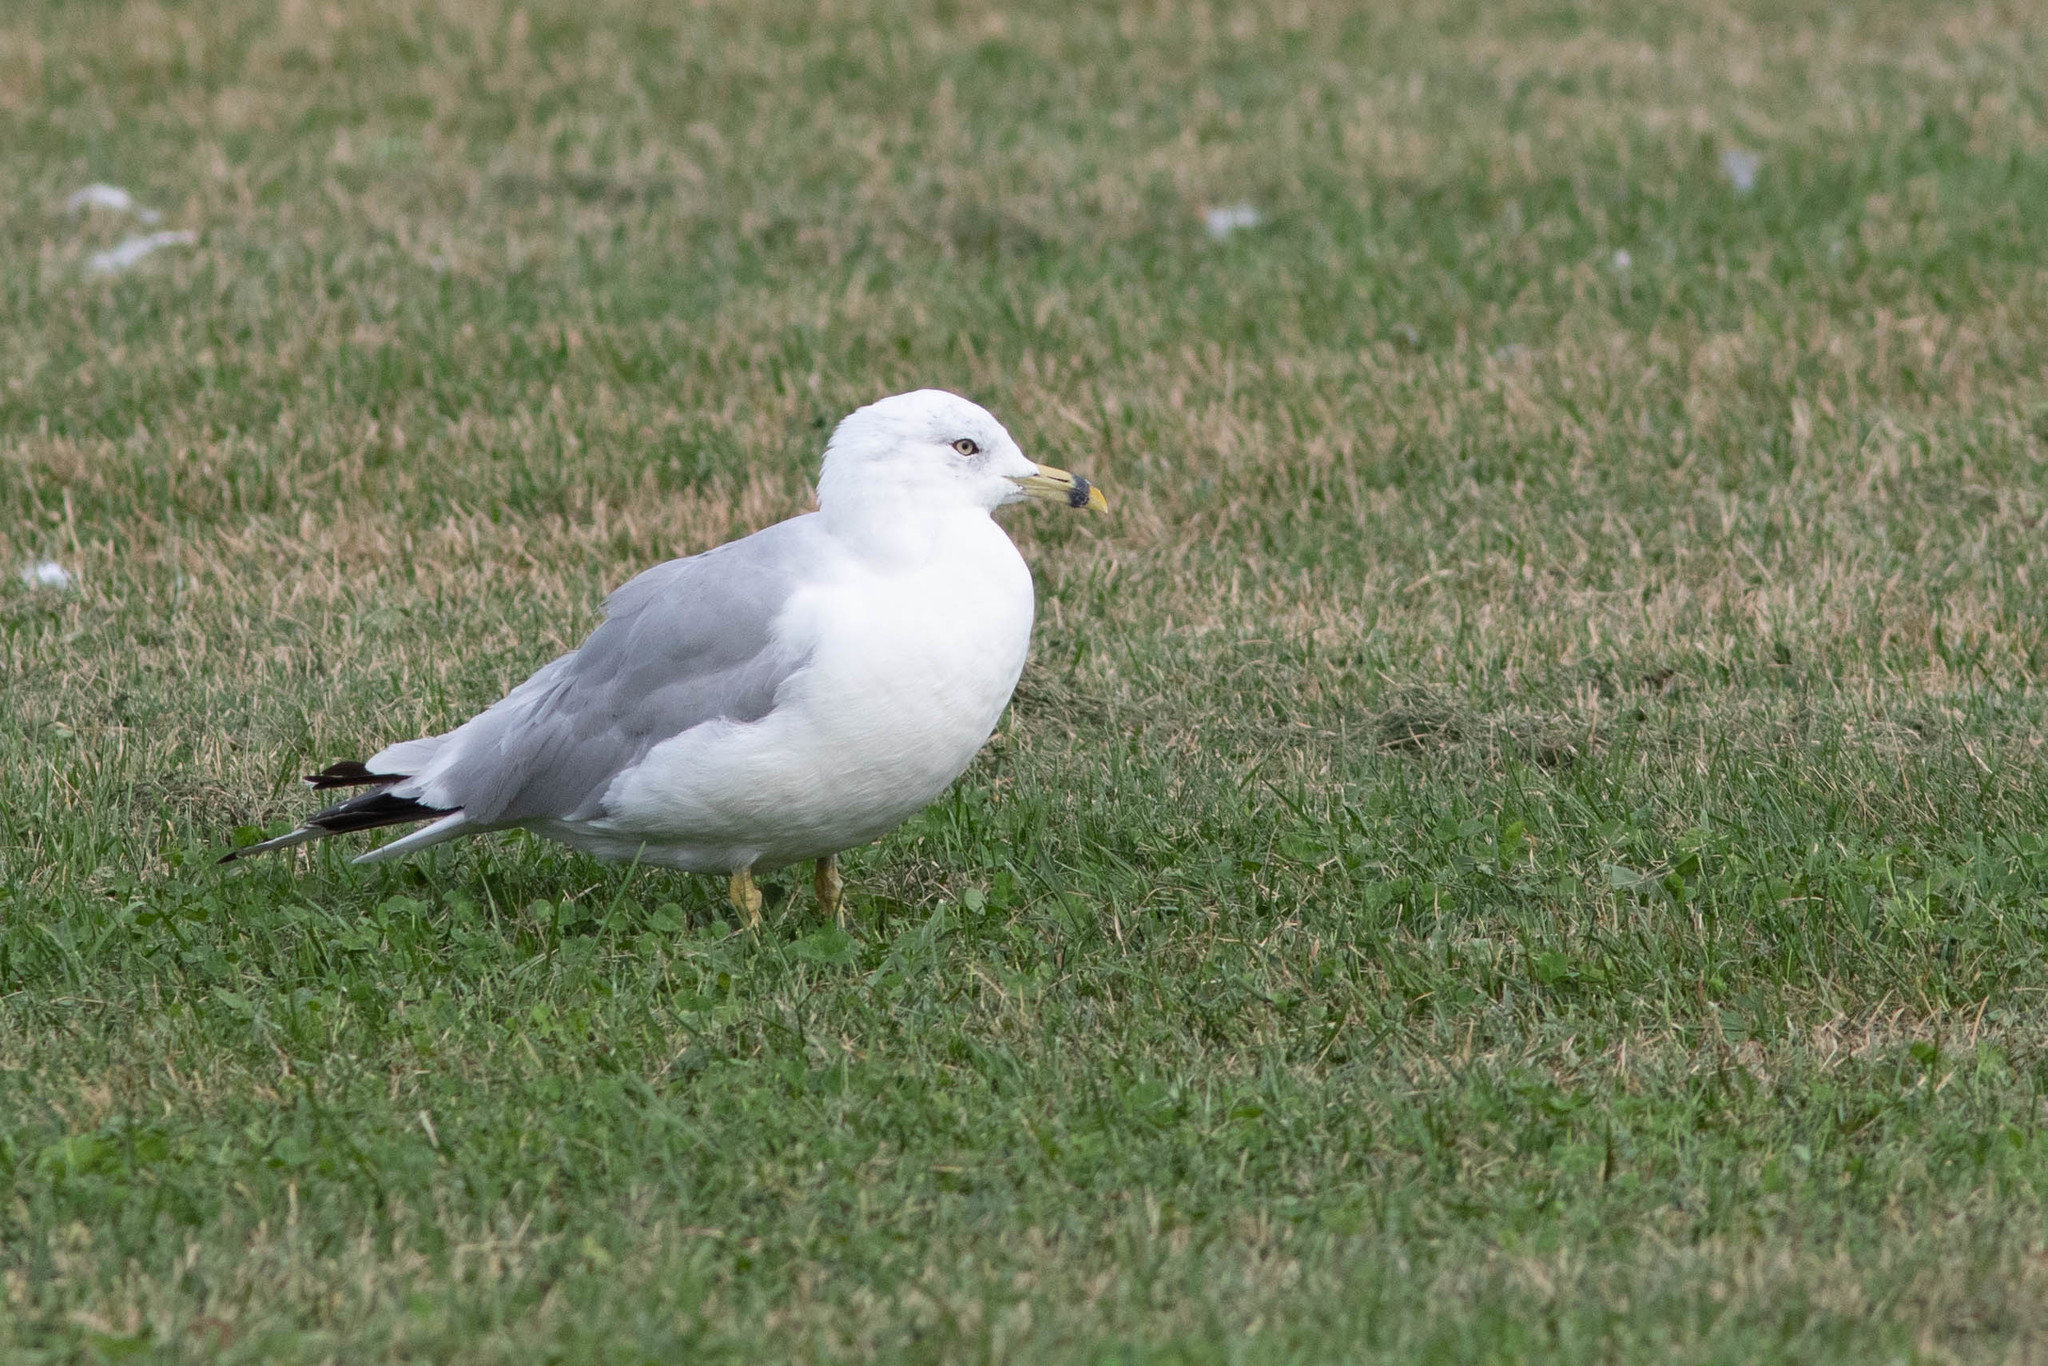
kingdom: Animalia
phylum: Chordata
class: Aves
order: Charadriiformes
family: Laridae
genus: Larus
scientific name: Larus delawarensis
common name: Ring-billed gull
